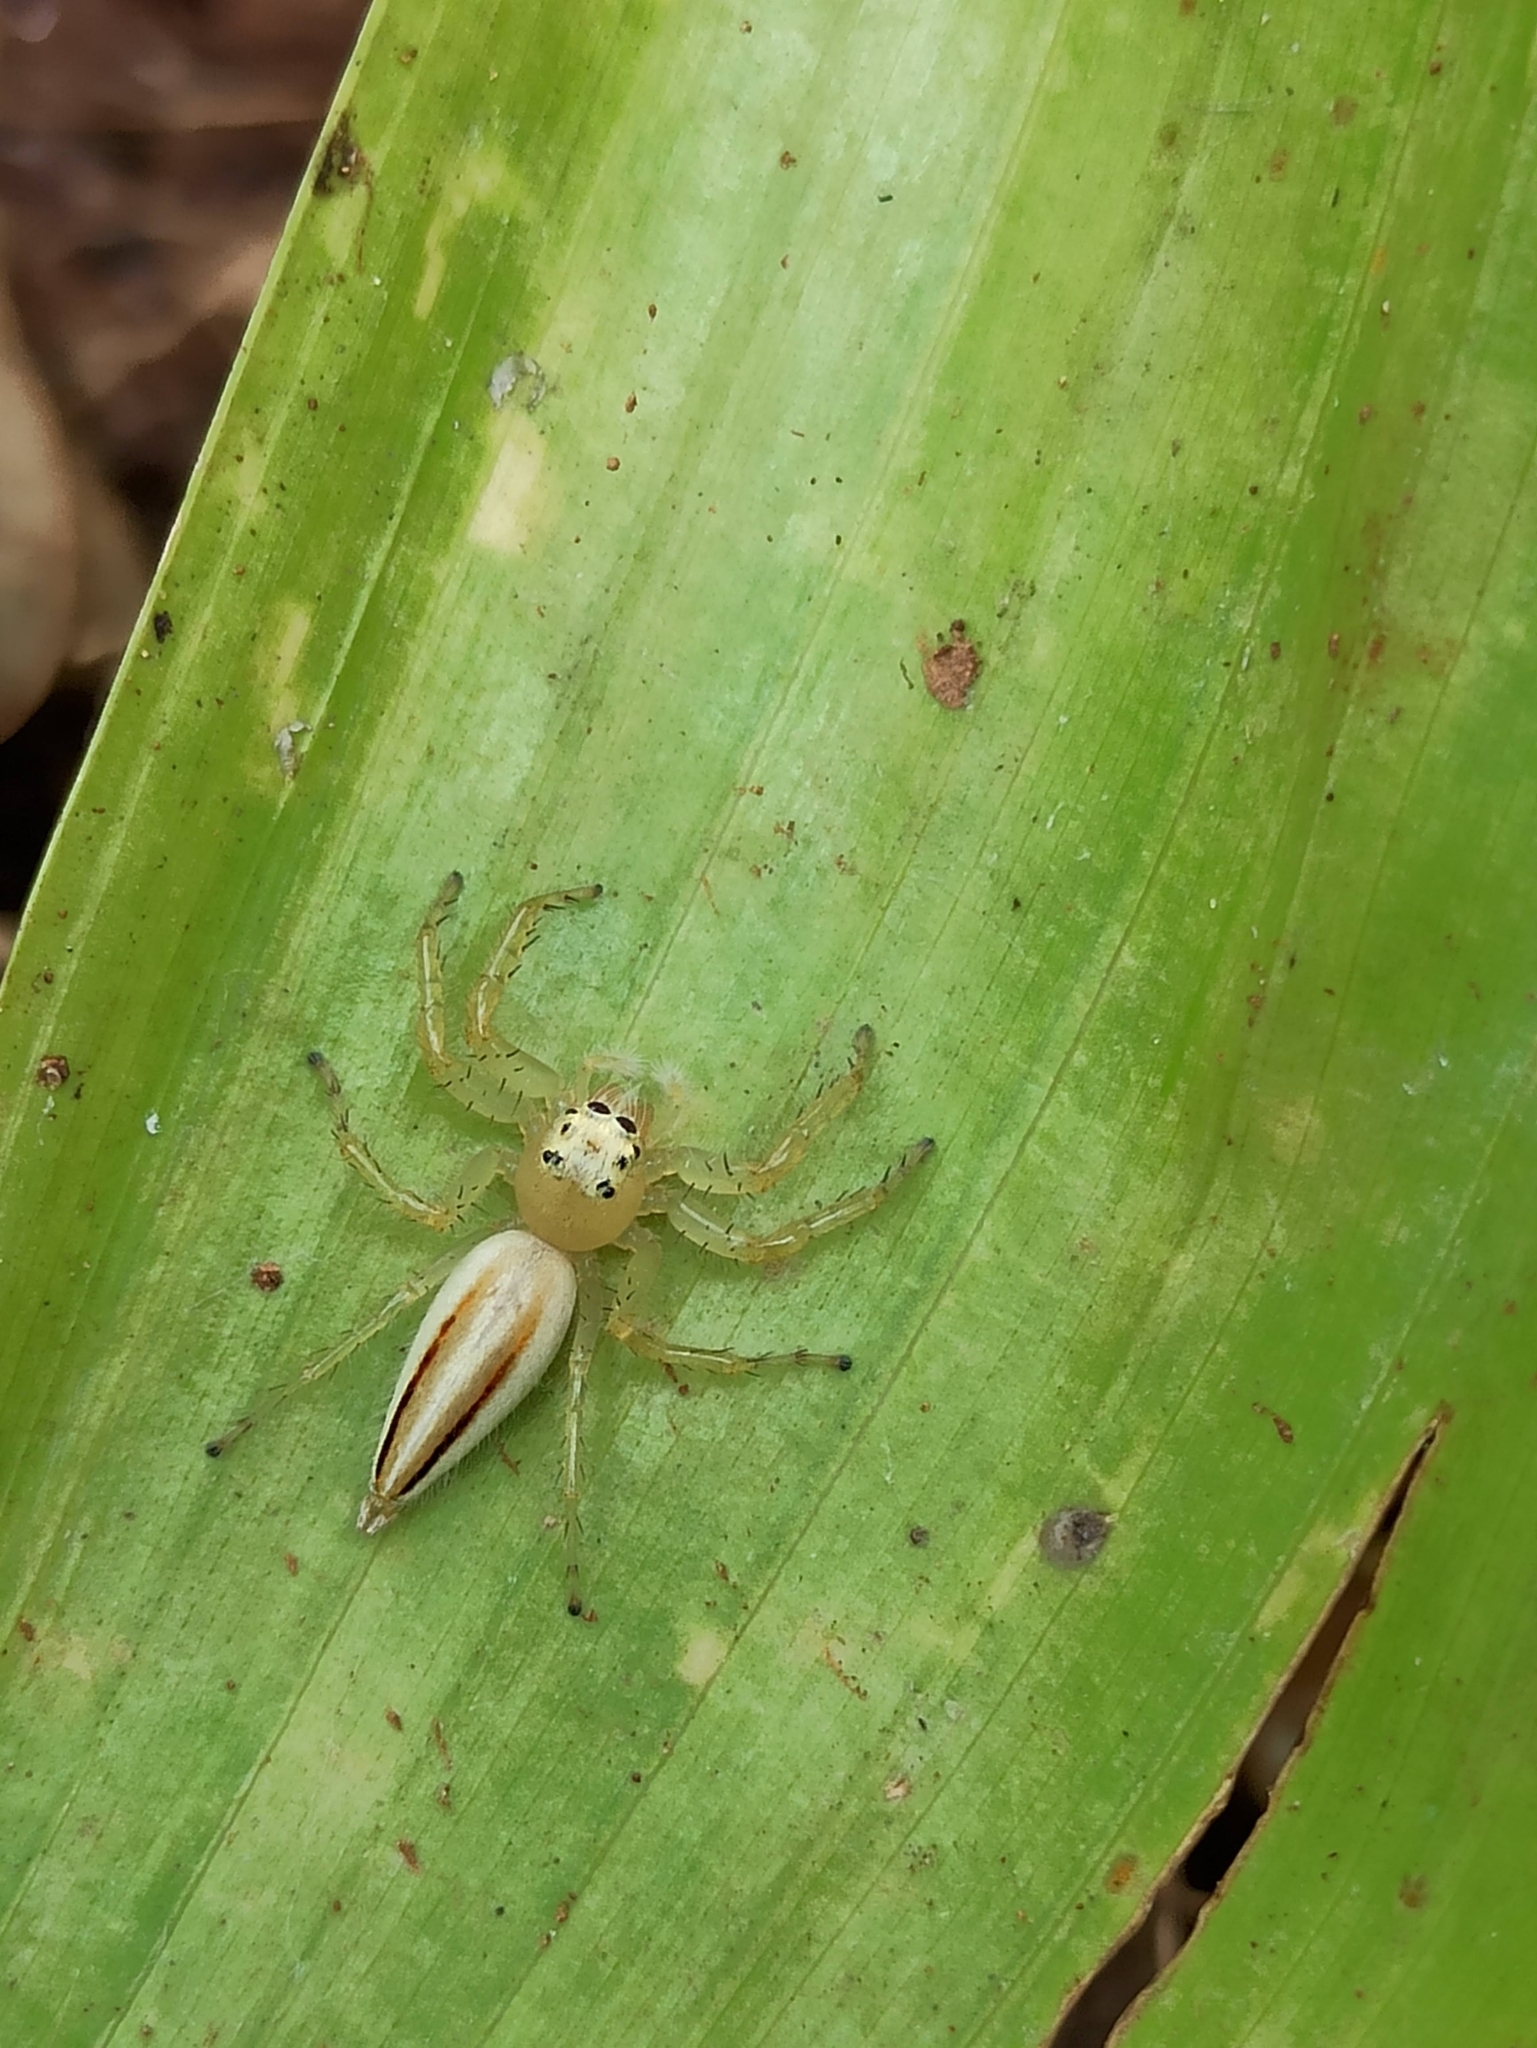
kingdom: Animalia
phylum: Arthropoda
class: Arachnida
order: Araneae
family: Salticidae
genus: Telamonia
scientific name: Telamonia dimidiata
